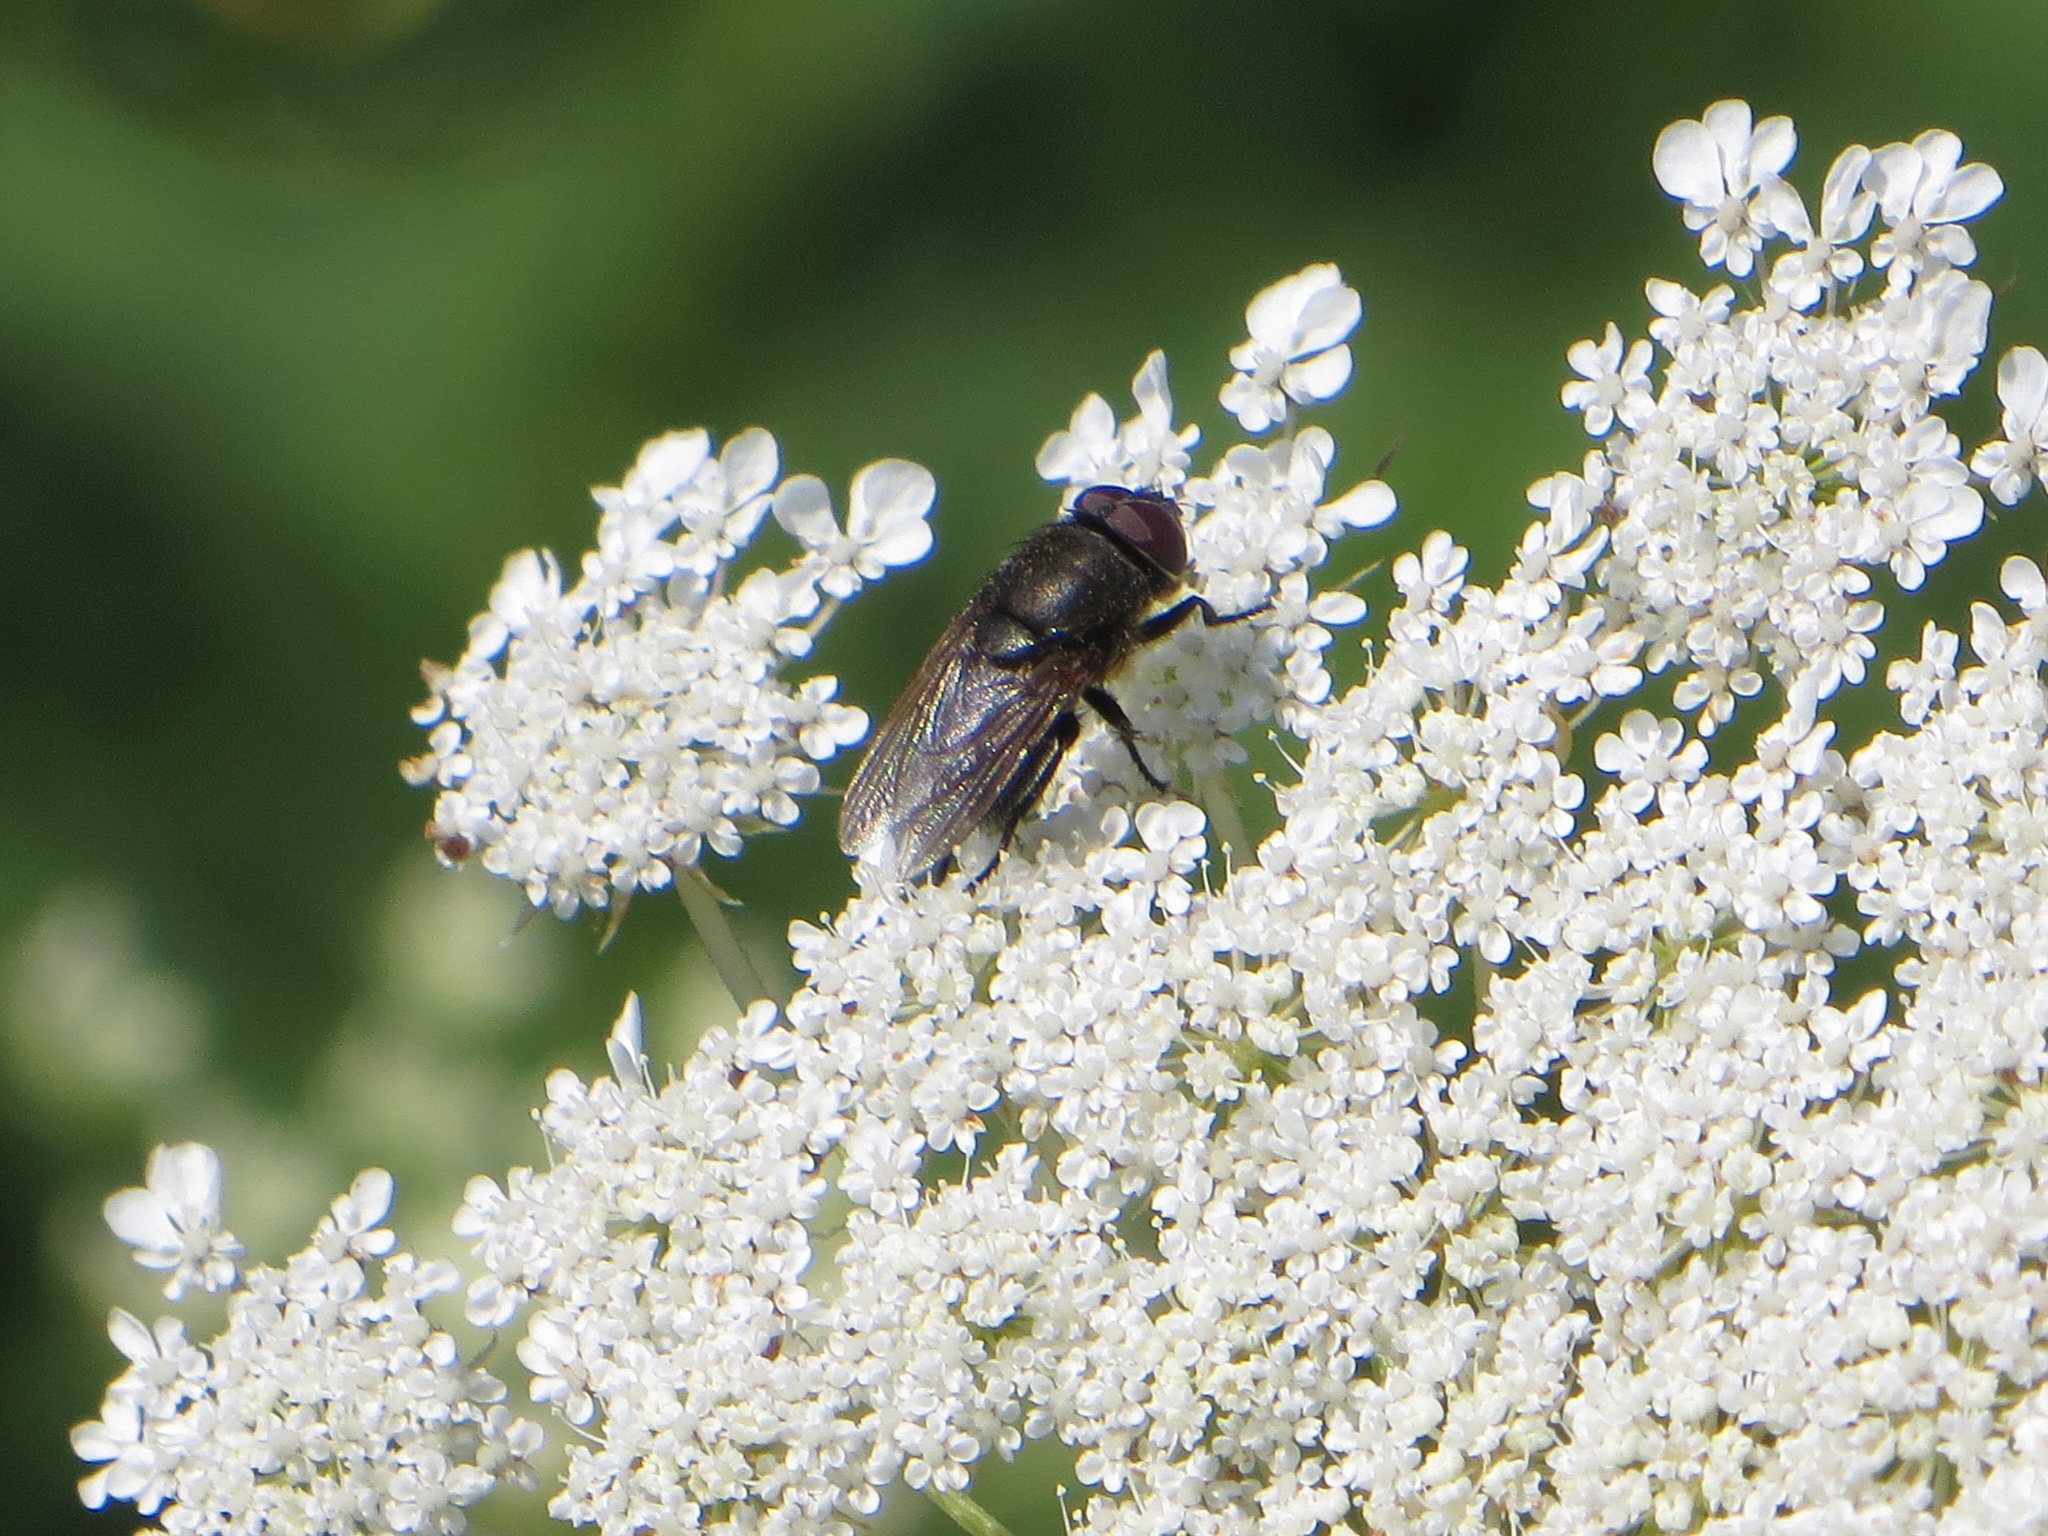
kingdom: Animalia
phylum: Arthropoda
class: Insecta
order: Diptera
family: Polleniidae
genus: Pollenia
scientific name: Pollenia amentaria
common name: Black-bellied clusterfly
